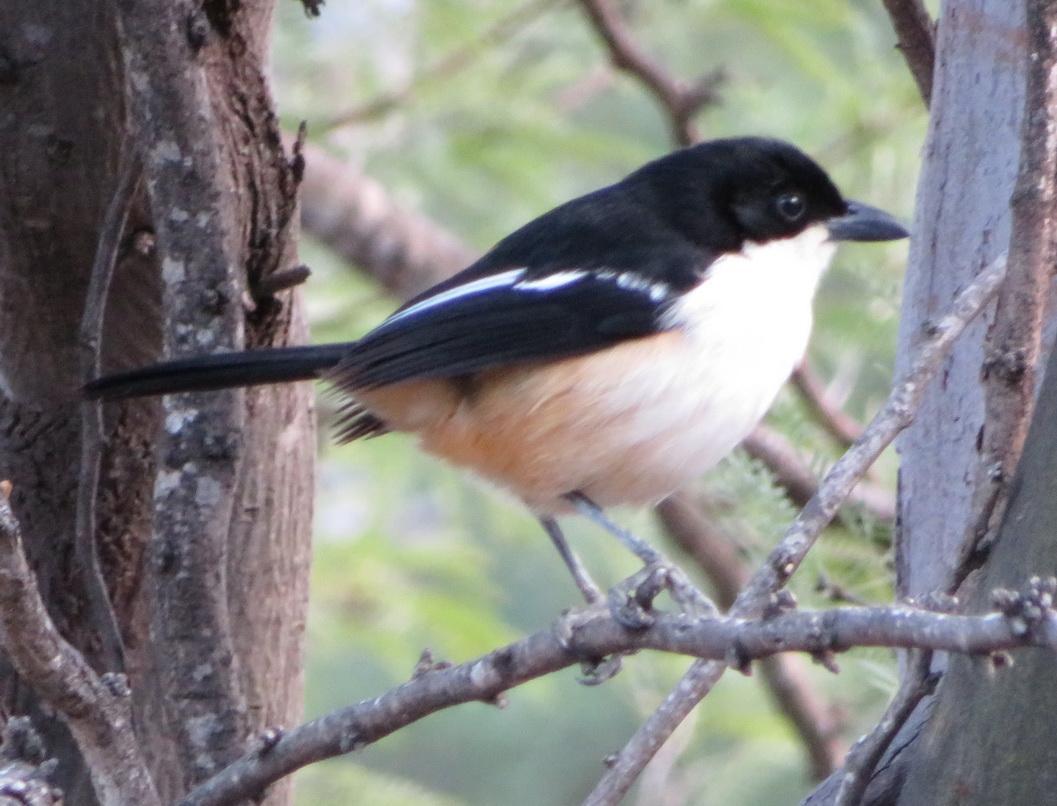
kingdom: Animalia
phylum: Chordata
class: Aves
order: Passeriformes
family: Malaconotidae
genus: Laniarius
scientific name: Laniarius ferrugineus
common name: Southern boubou
